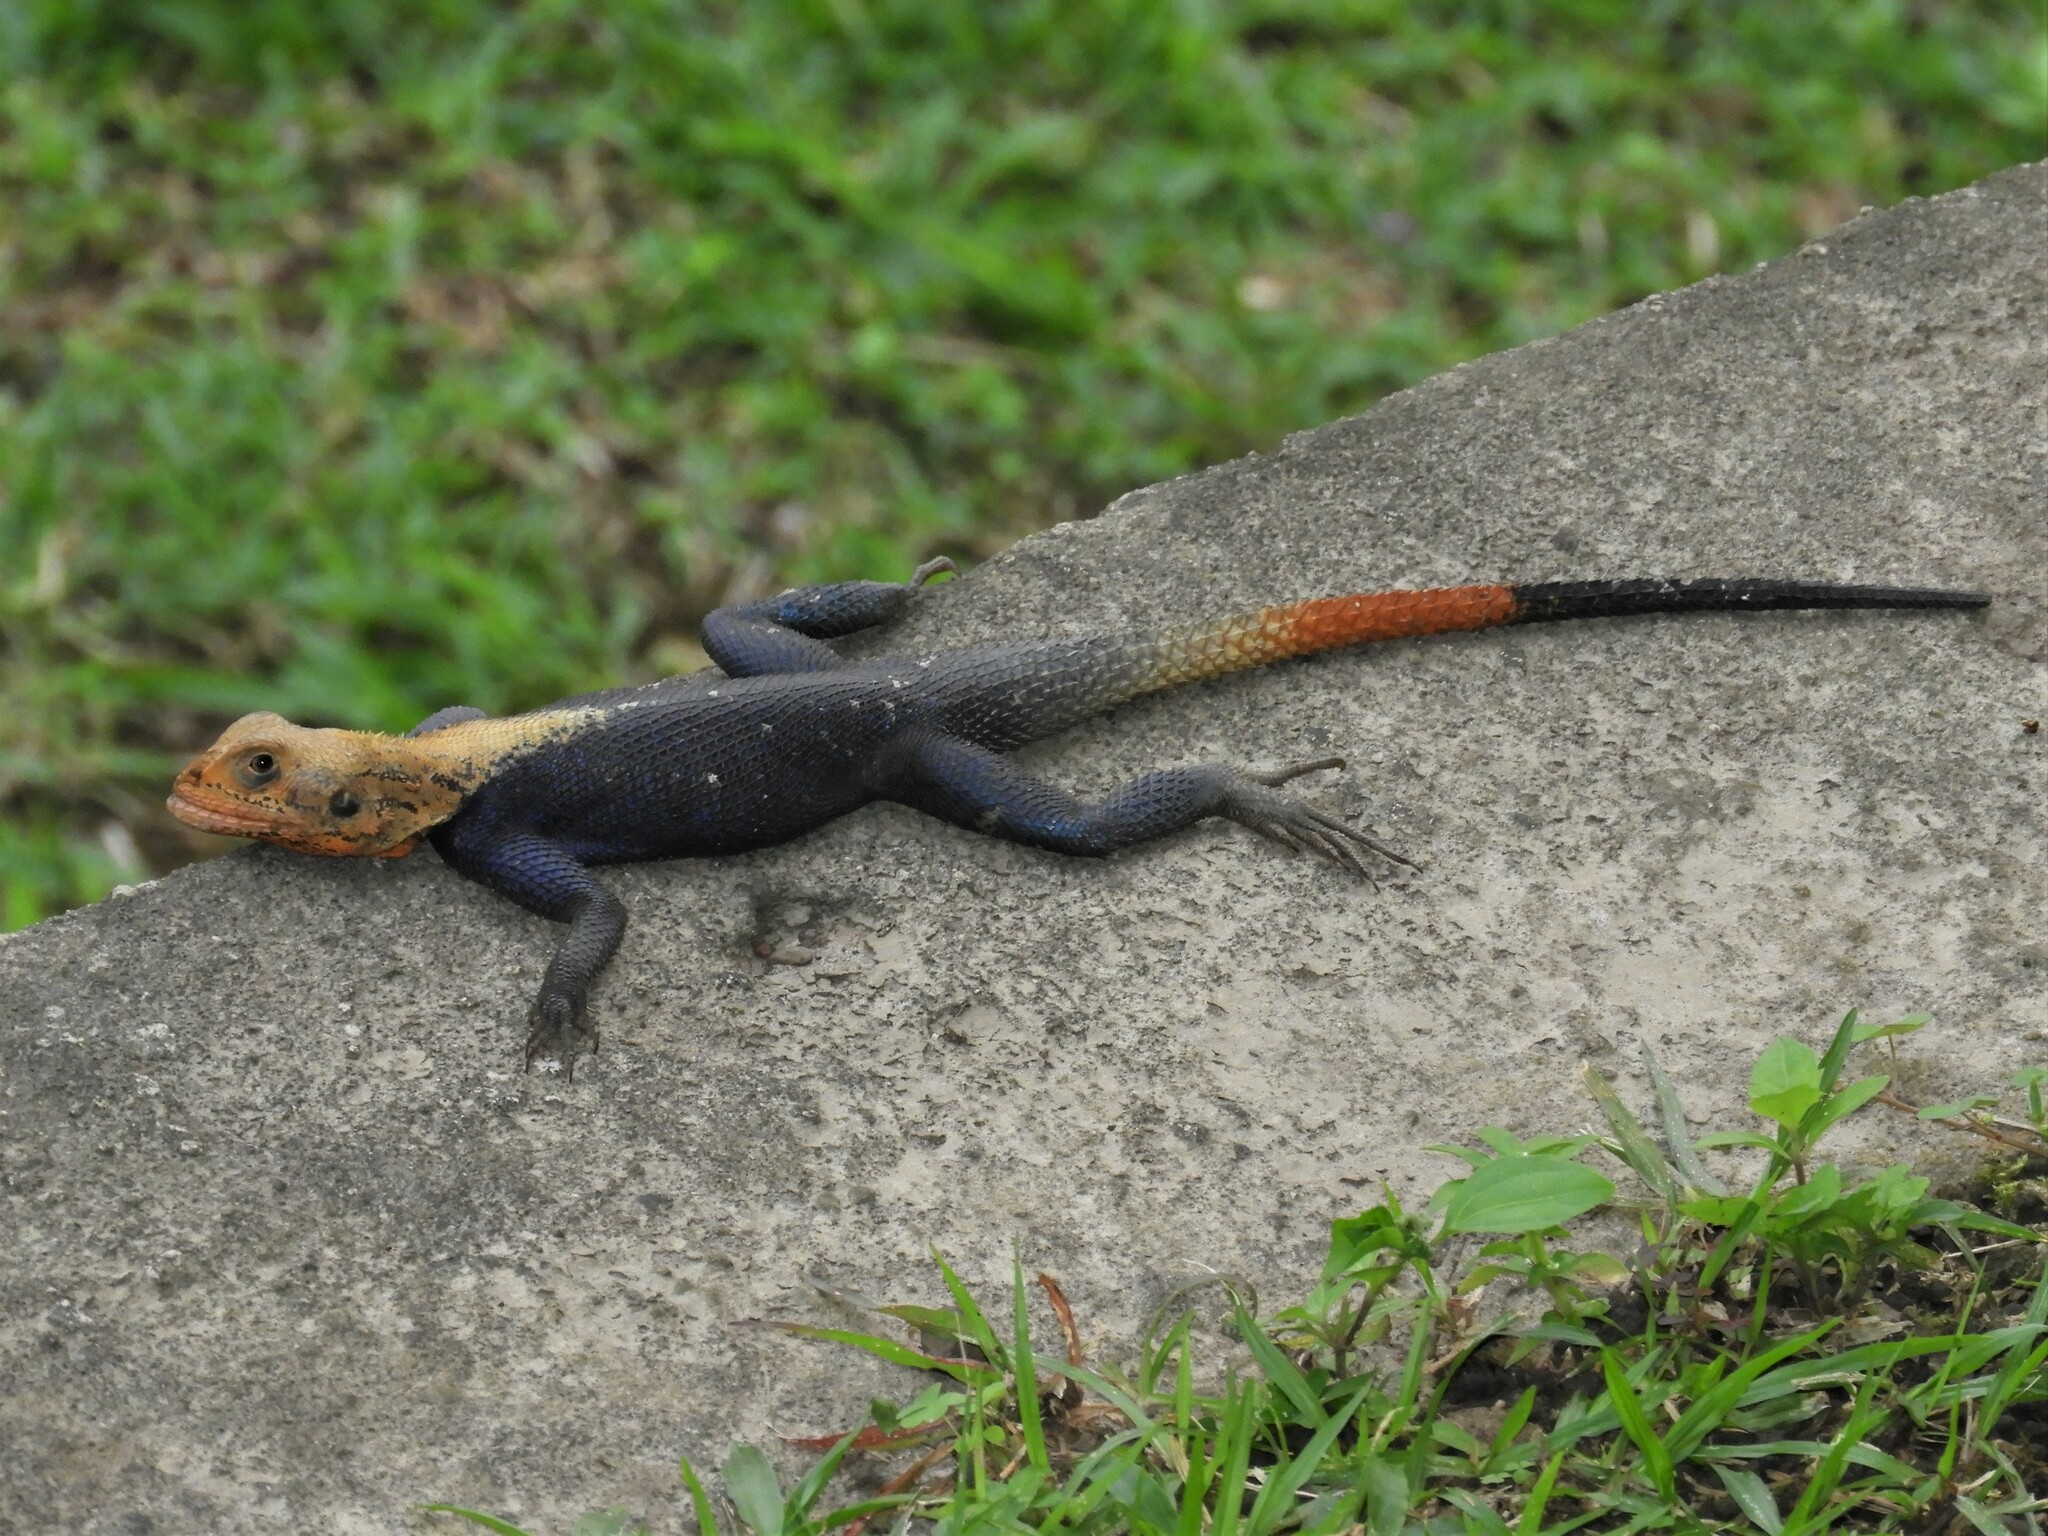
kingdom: Animalia
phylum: Chordata
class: Squamata
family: Agamidae
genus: Agama
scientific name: Agama agama
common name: Common agama
